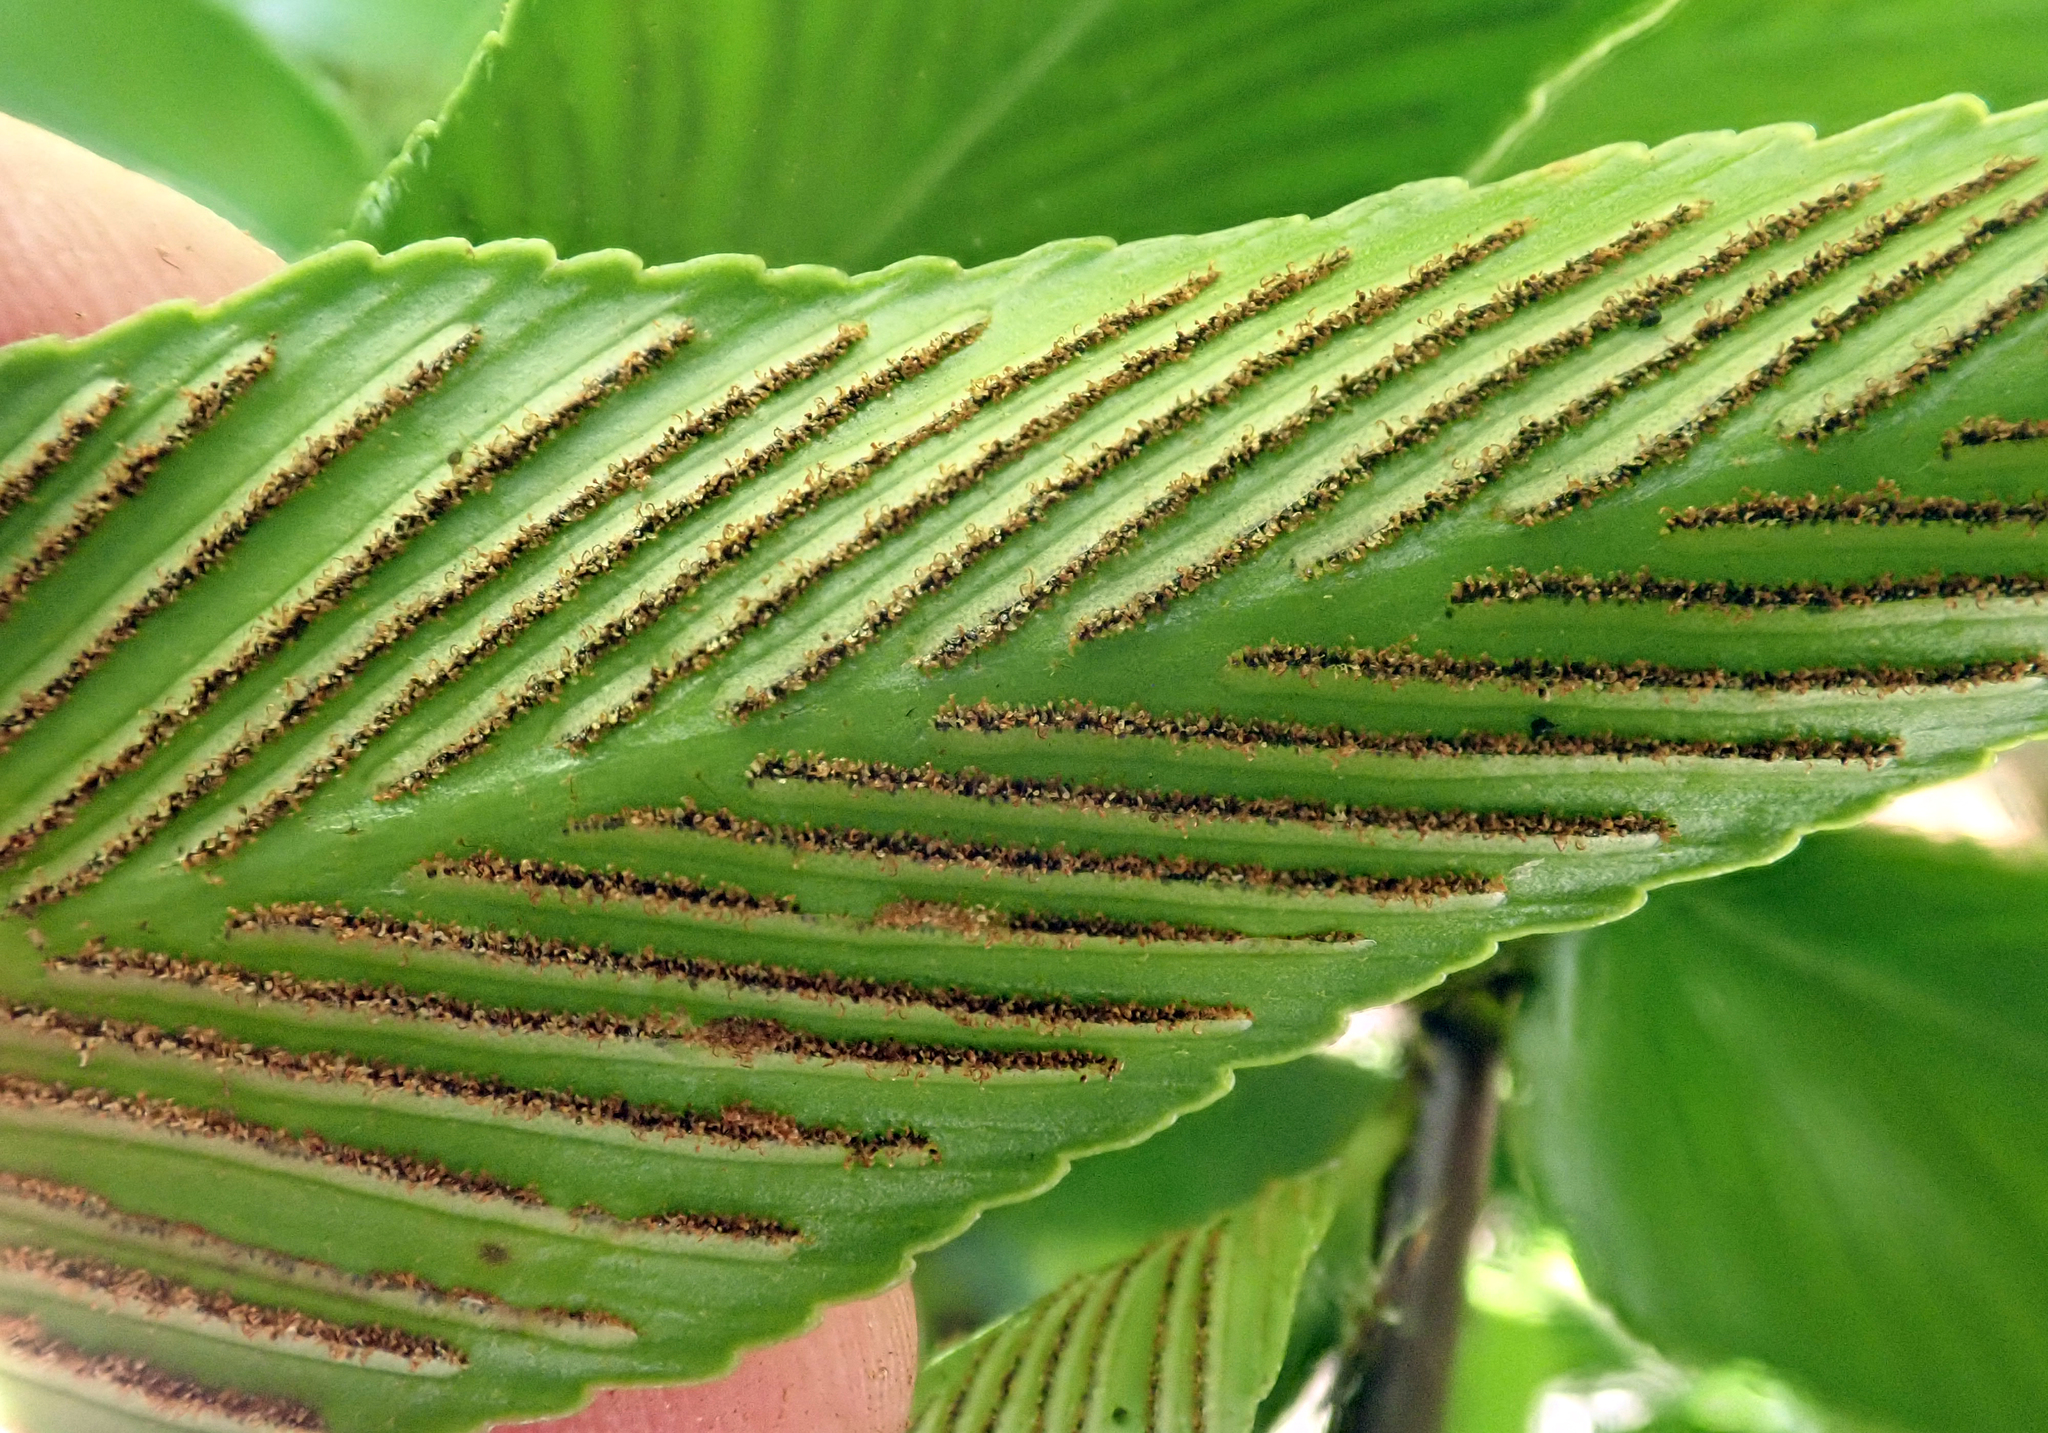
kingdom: Plantae
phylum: Tracheophyta
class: Polypodiopsida
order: Polypodiales
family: Aspleniaceae
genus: Asplenium
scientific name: Asplenium oblongifolium
